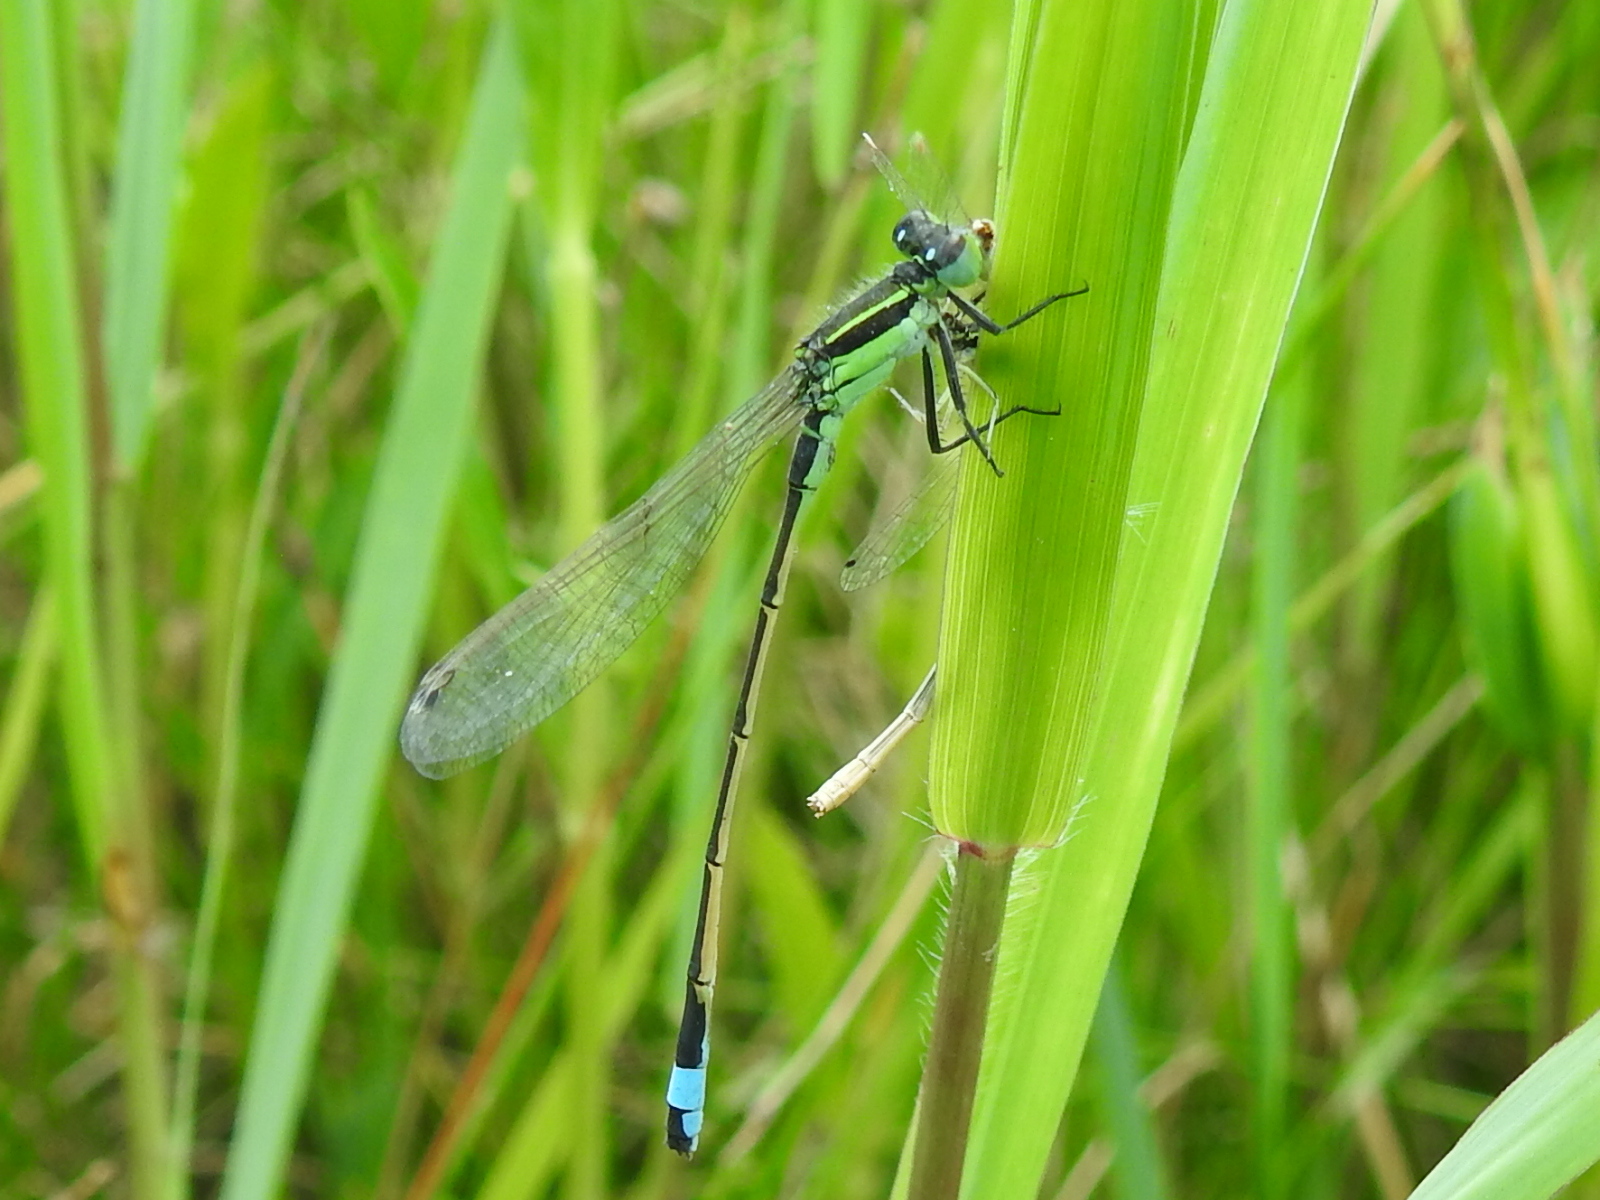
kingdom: Animalia
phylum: Arthropoda
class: Insecta
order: Odonata
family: Coenagrionidae
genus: Ischnura
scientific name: Ischnura ramburii
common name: Rambur's forktail
